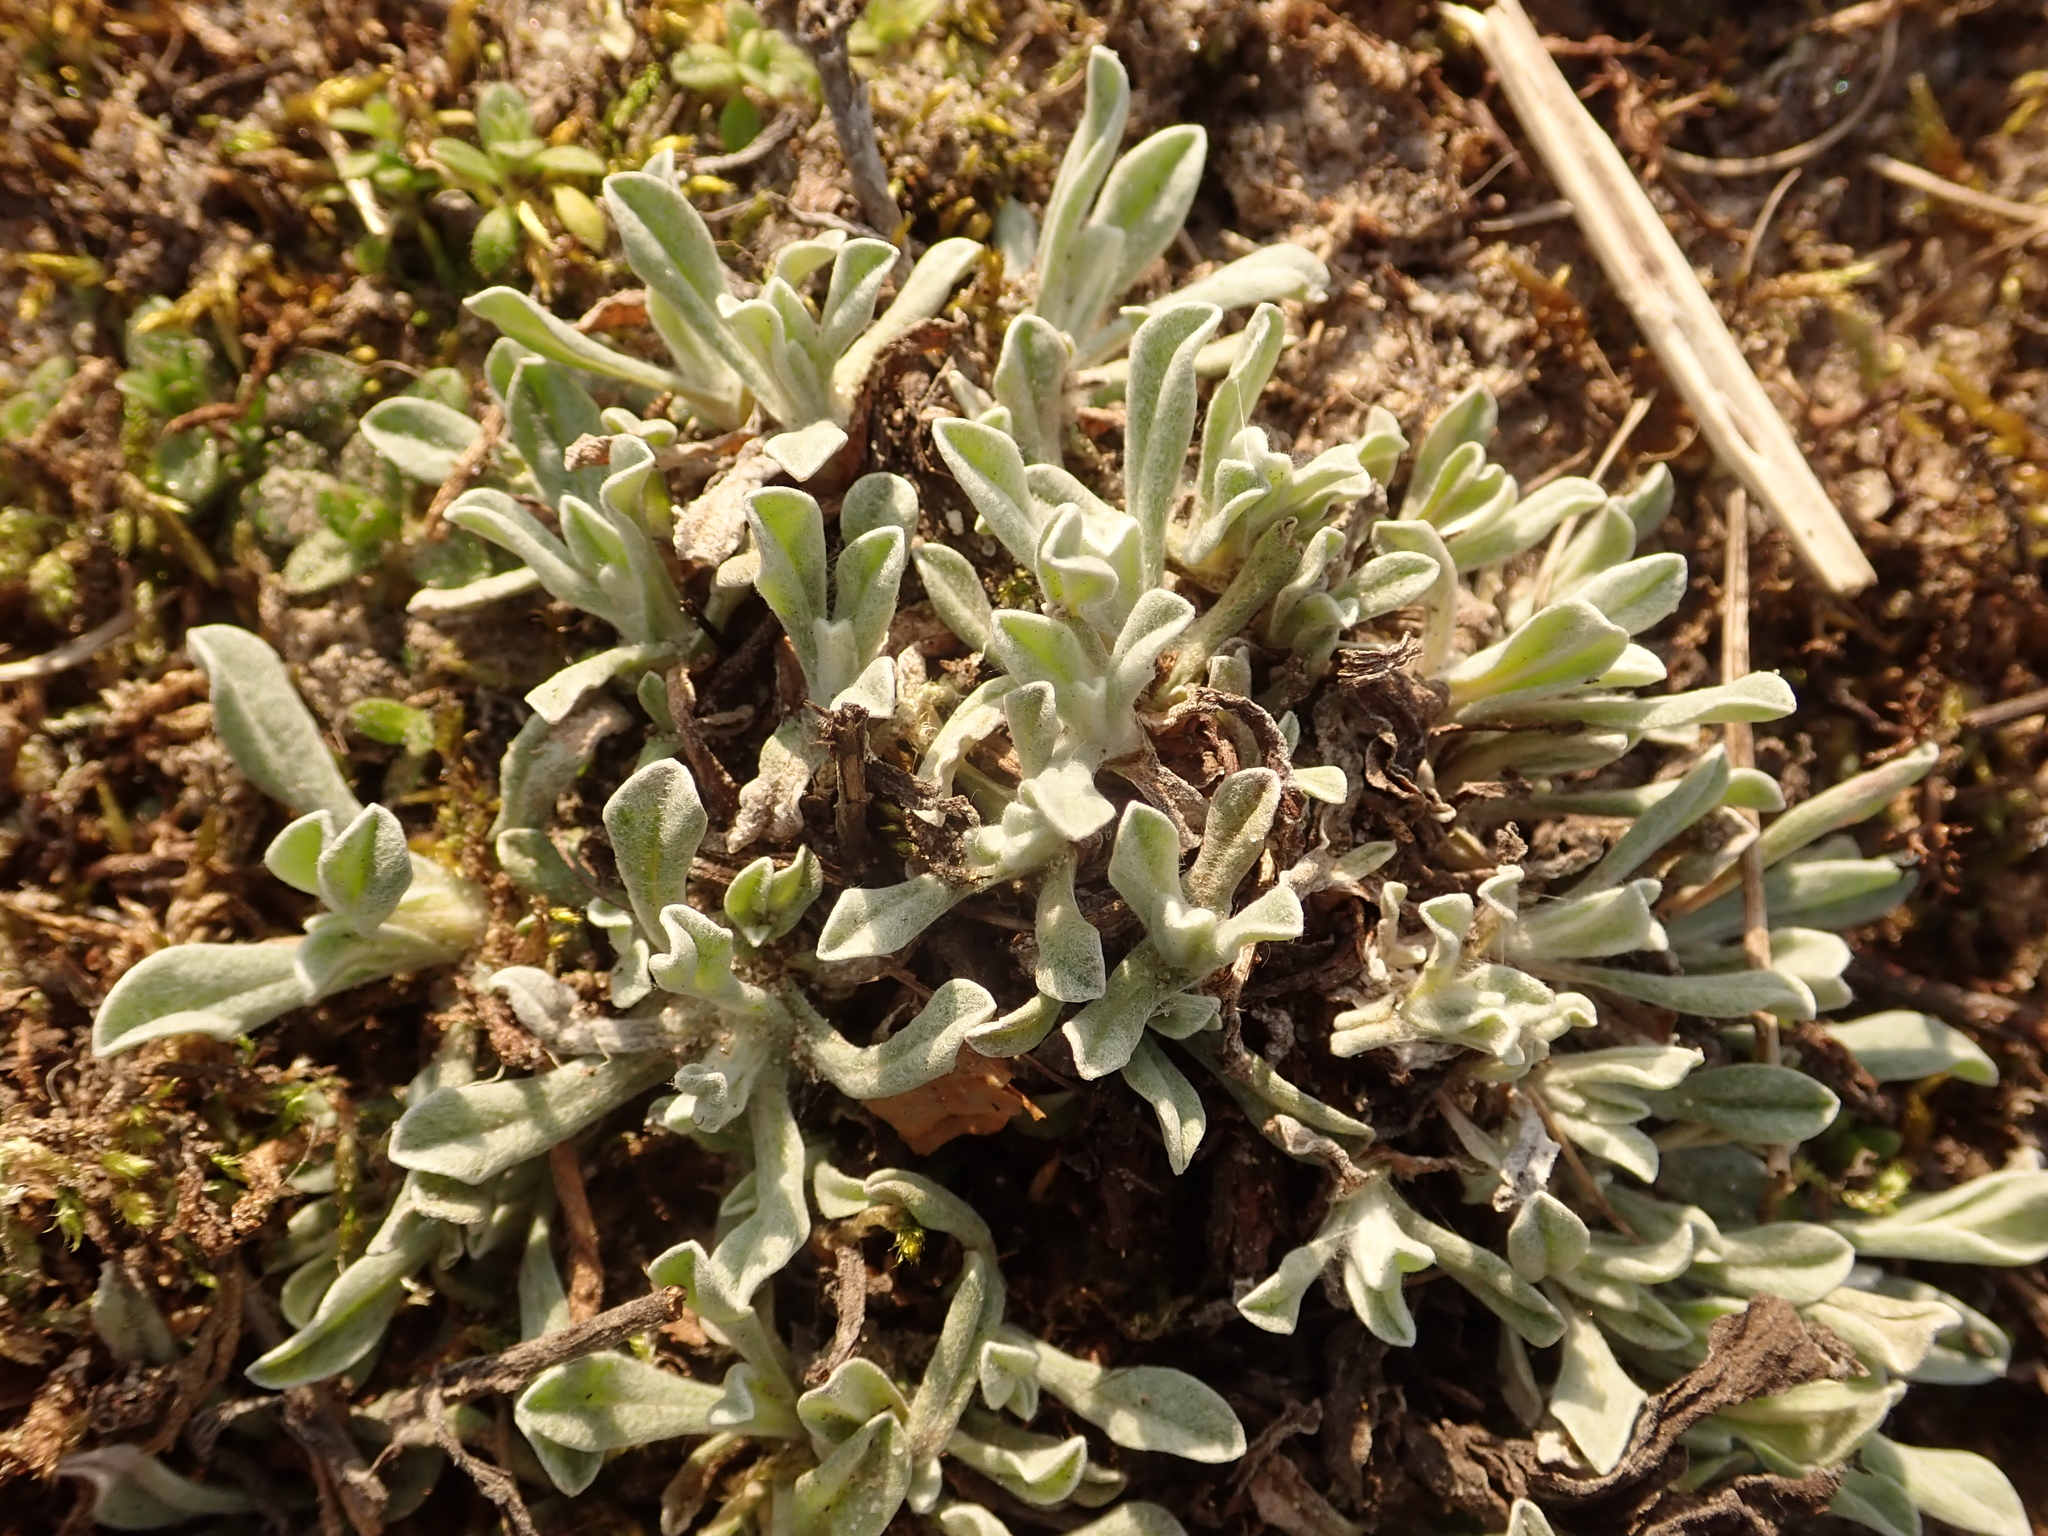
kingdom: Plantae
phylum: Tracheophyta
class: Magnoliopsida
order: Asterales
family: Asteraceae
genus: Helichrysum
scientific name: Helichrysum arenarium
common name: Strawflower
